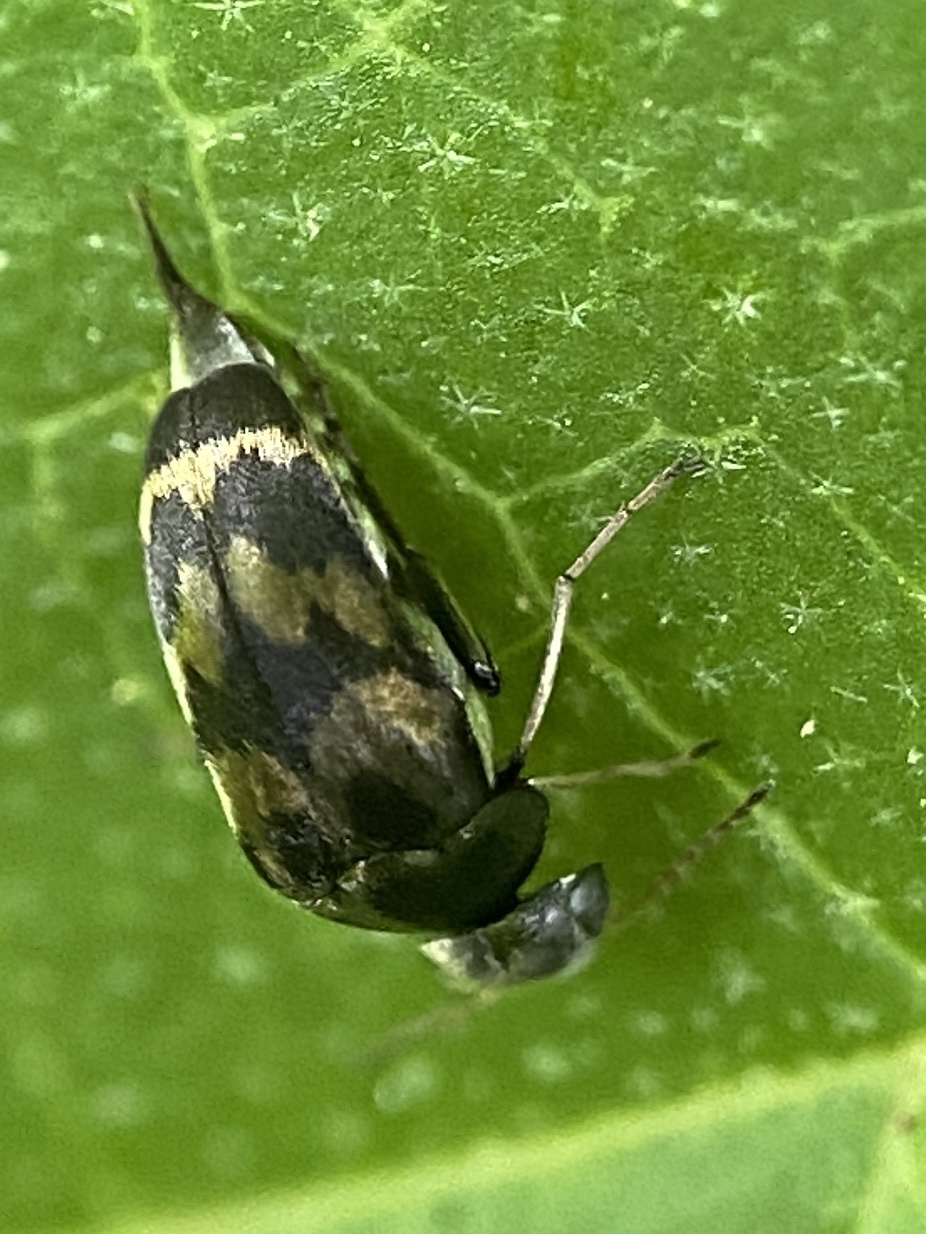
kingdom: Animalia
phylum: Arthropoda
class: Insecta
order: Coleoptera
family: Mordellidae
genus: Paramordellaria
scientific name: Paramordellaria triloba
